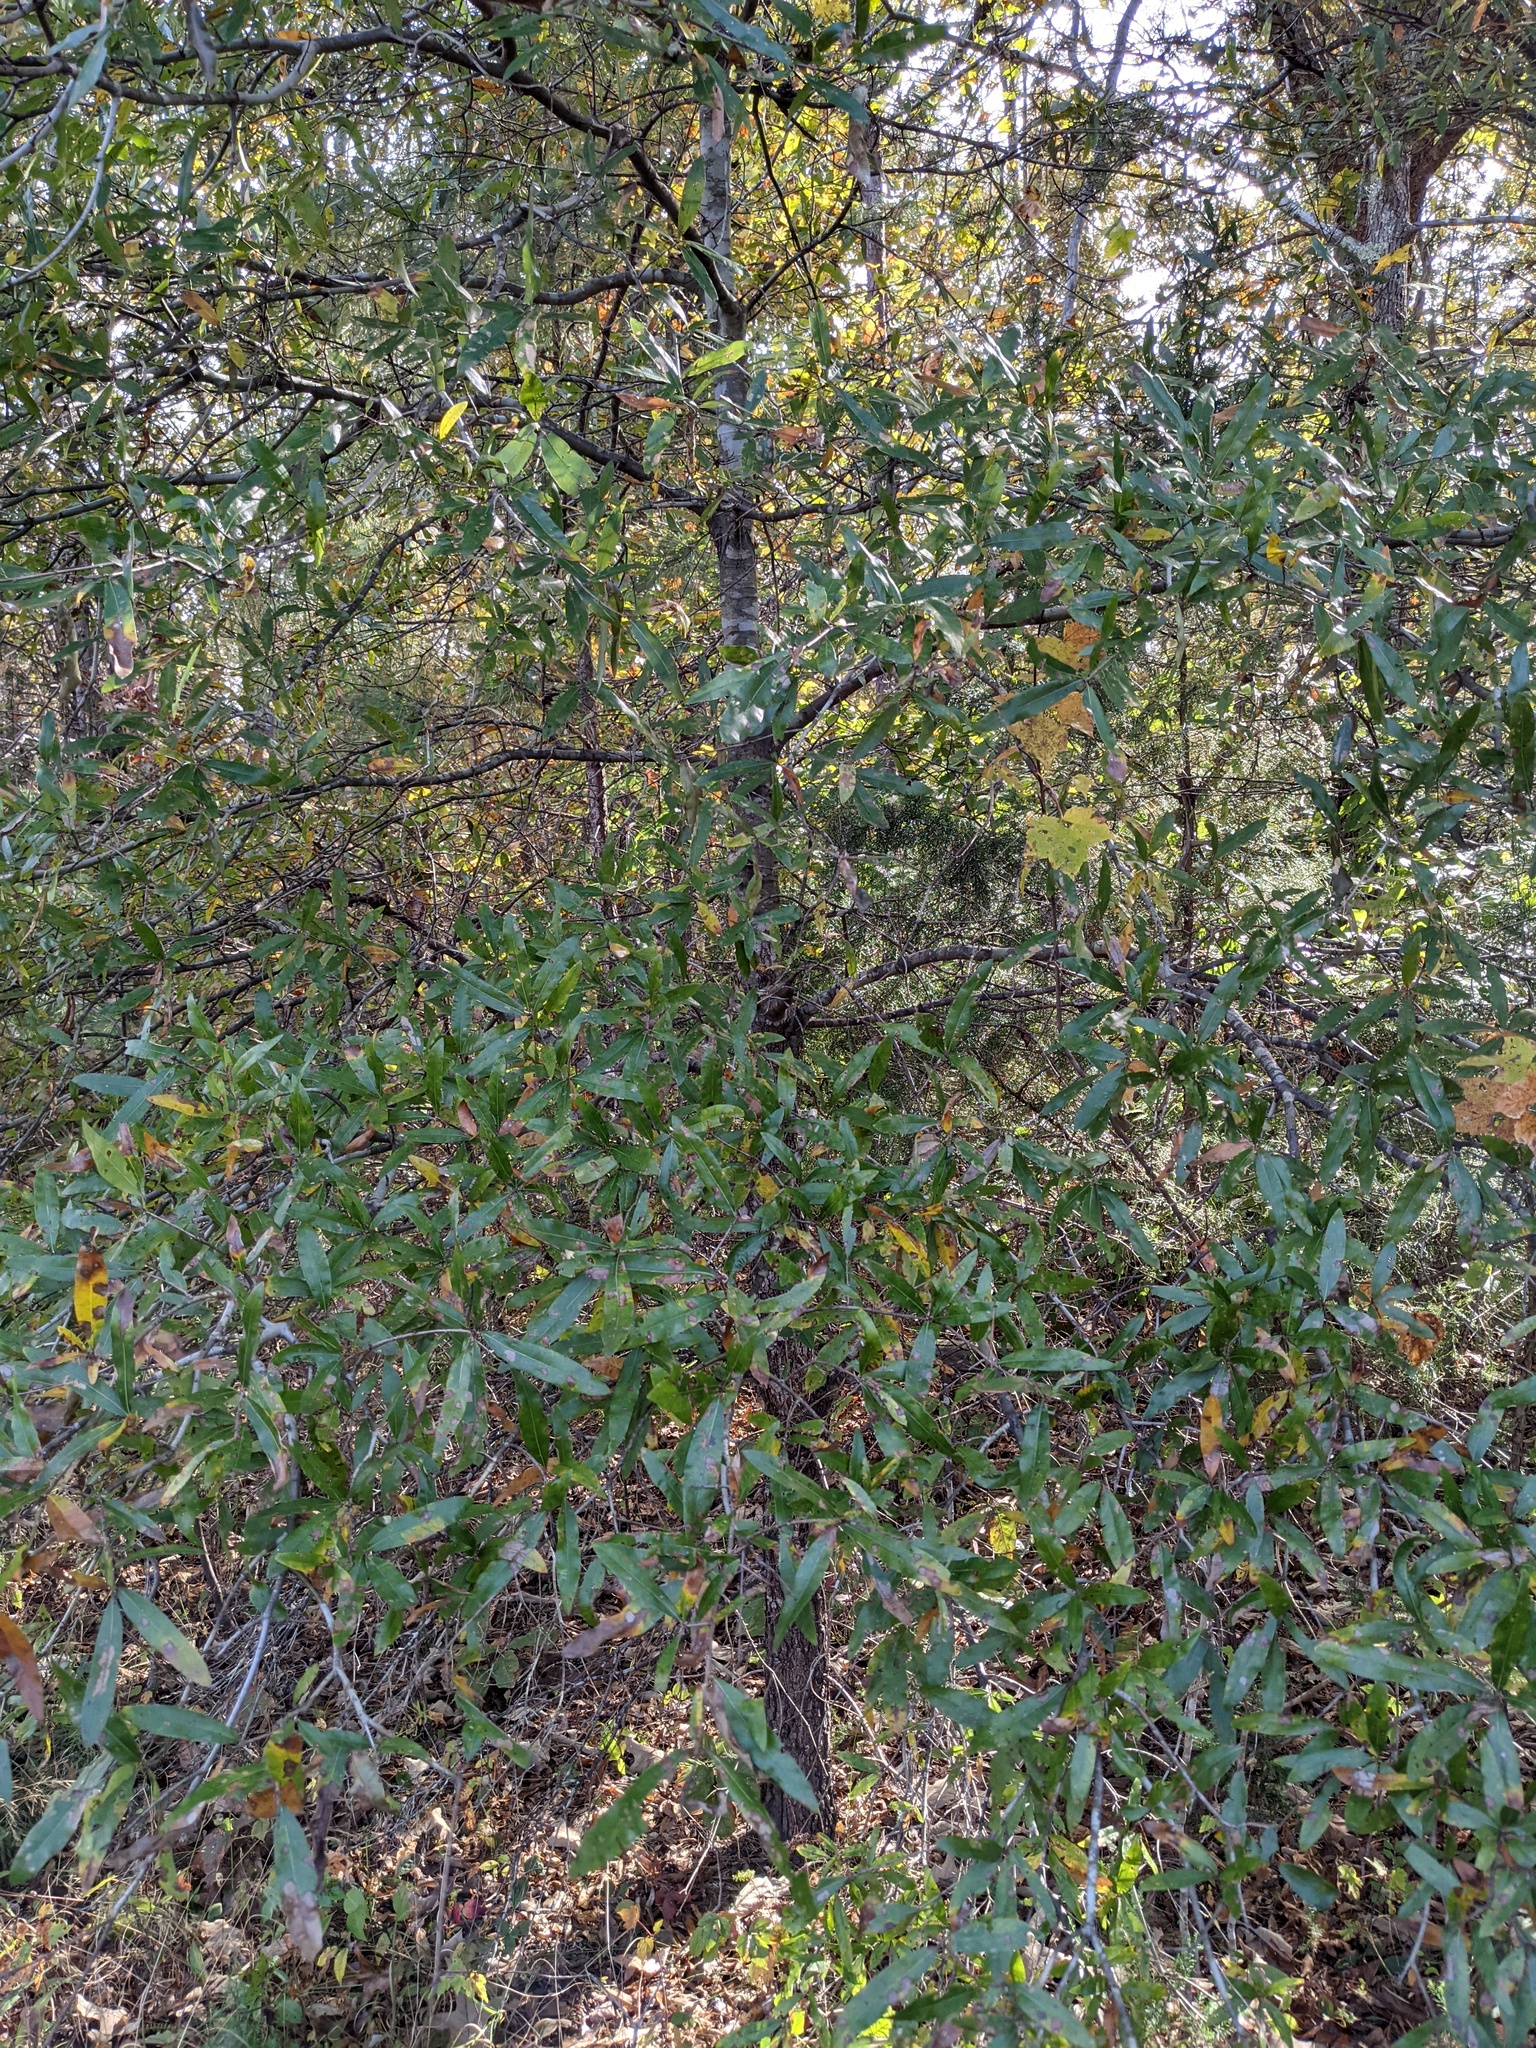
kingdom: Plantae
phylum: Tracheophyta
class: Magnoliopsida
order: Fagales
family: Fagaceae
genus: Quercus
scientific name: Quercus phellos
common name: Willow oak
